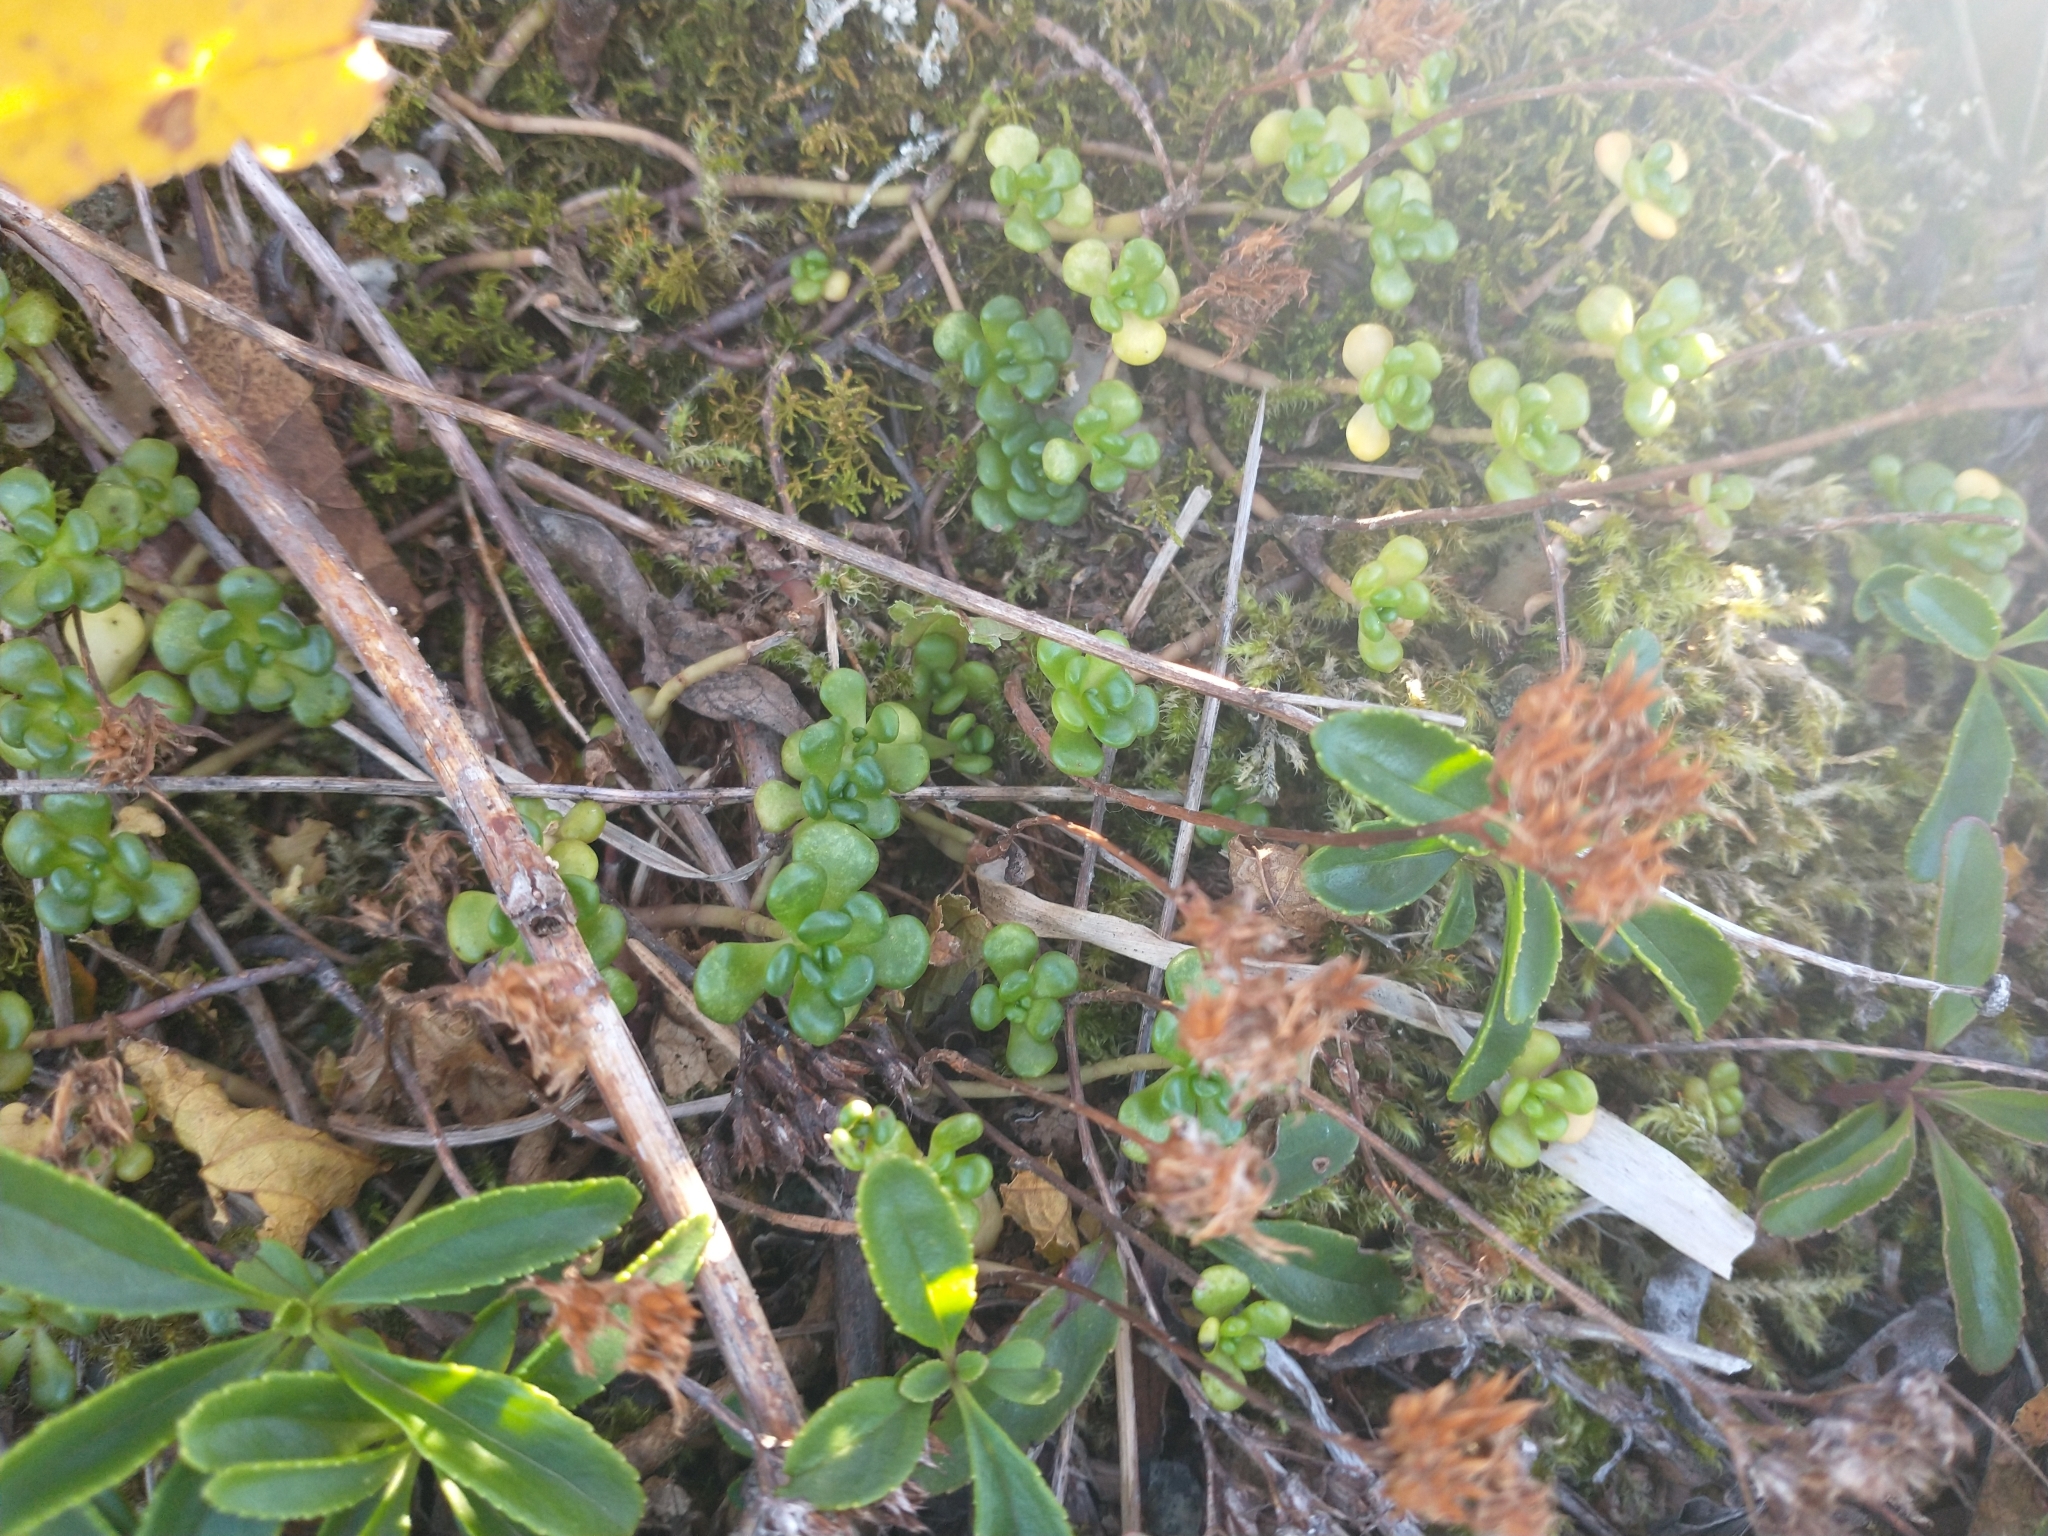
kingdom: Plantae
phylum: Tracheophyta
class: Magnoliopsida
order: Saxifragales
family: Crassulaceae
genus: Sedum
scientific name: Sedum oreganum
